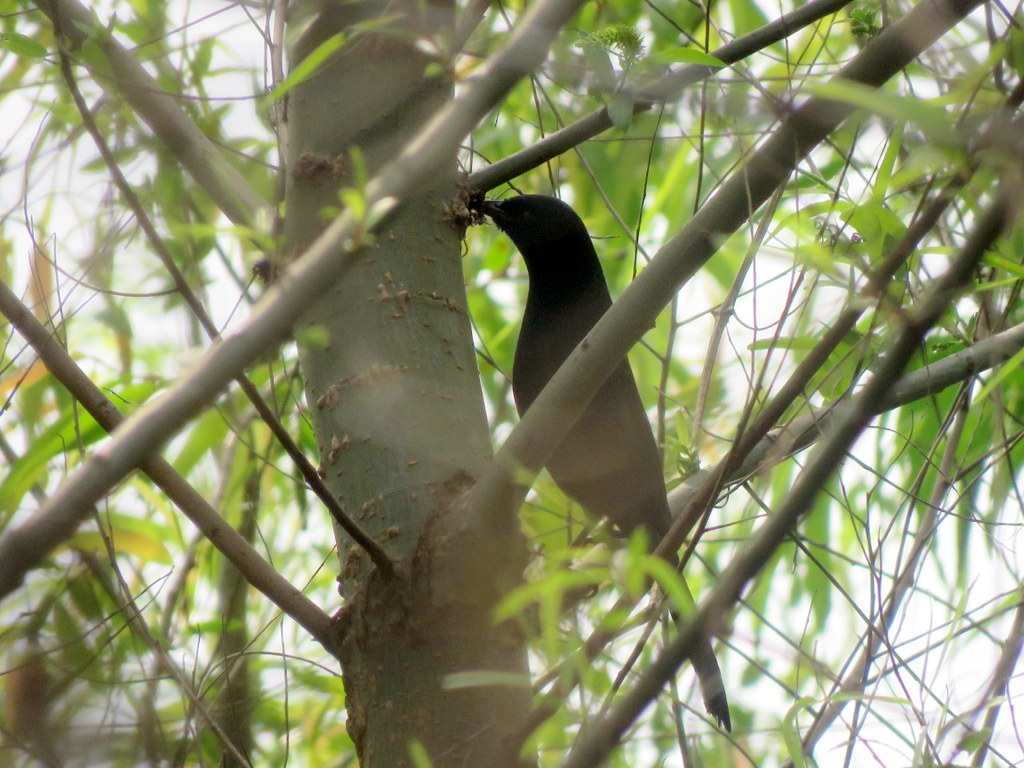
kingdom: Animalia
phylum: Chordata
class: Aves
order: Passeriformes
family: Icteridae
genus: Icterus
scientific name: Icterus cayanensis
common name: Epaulet oriole
